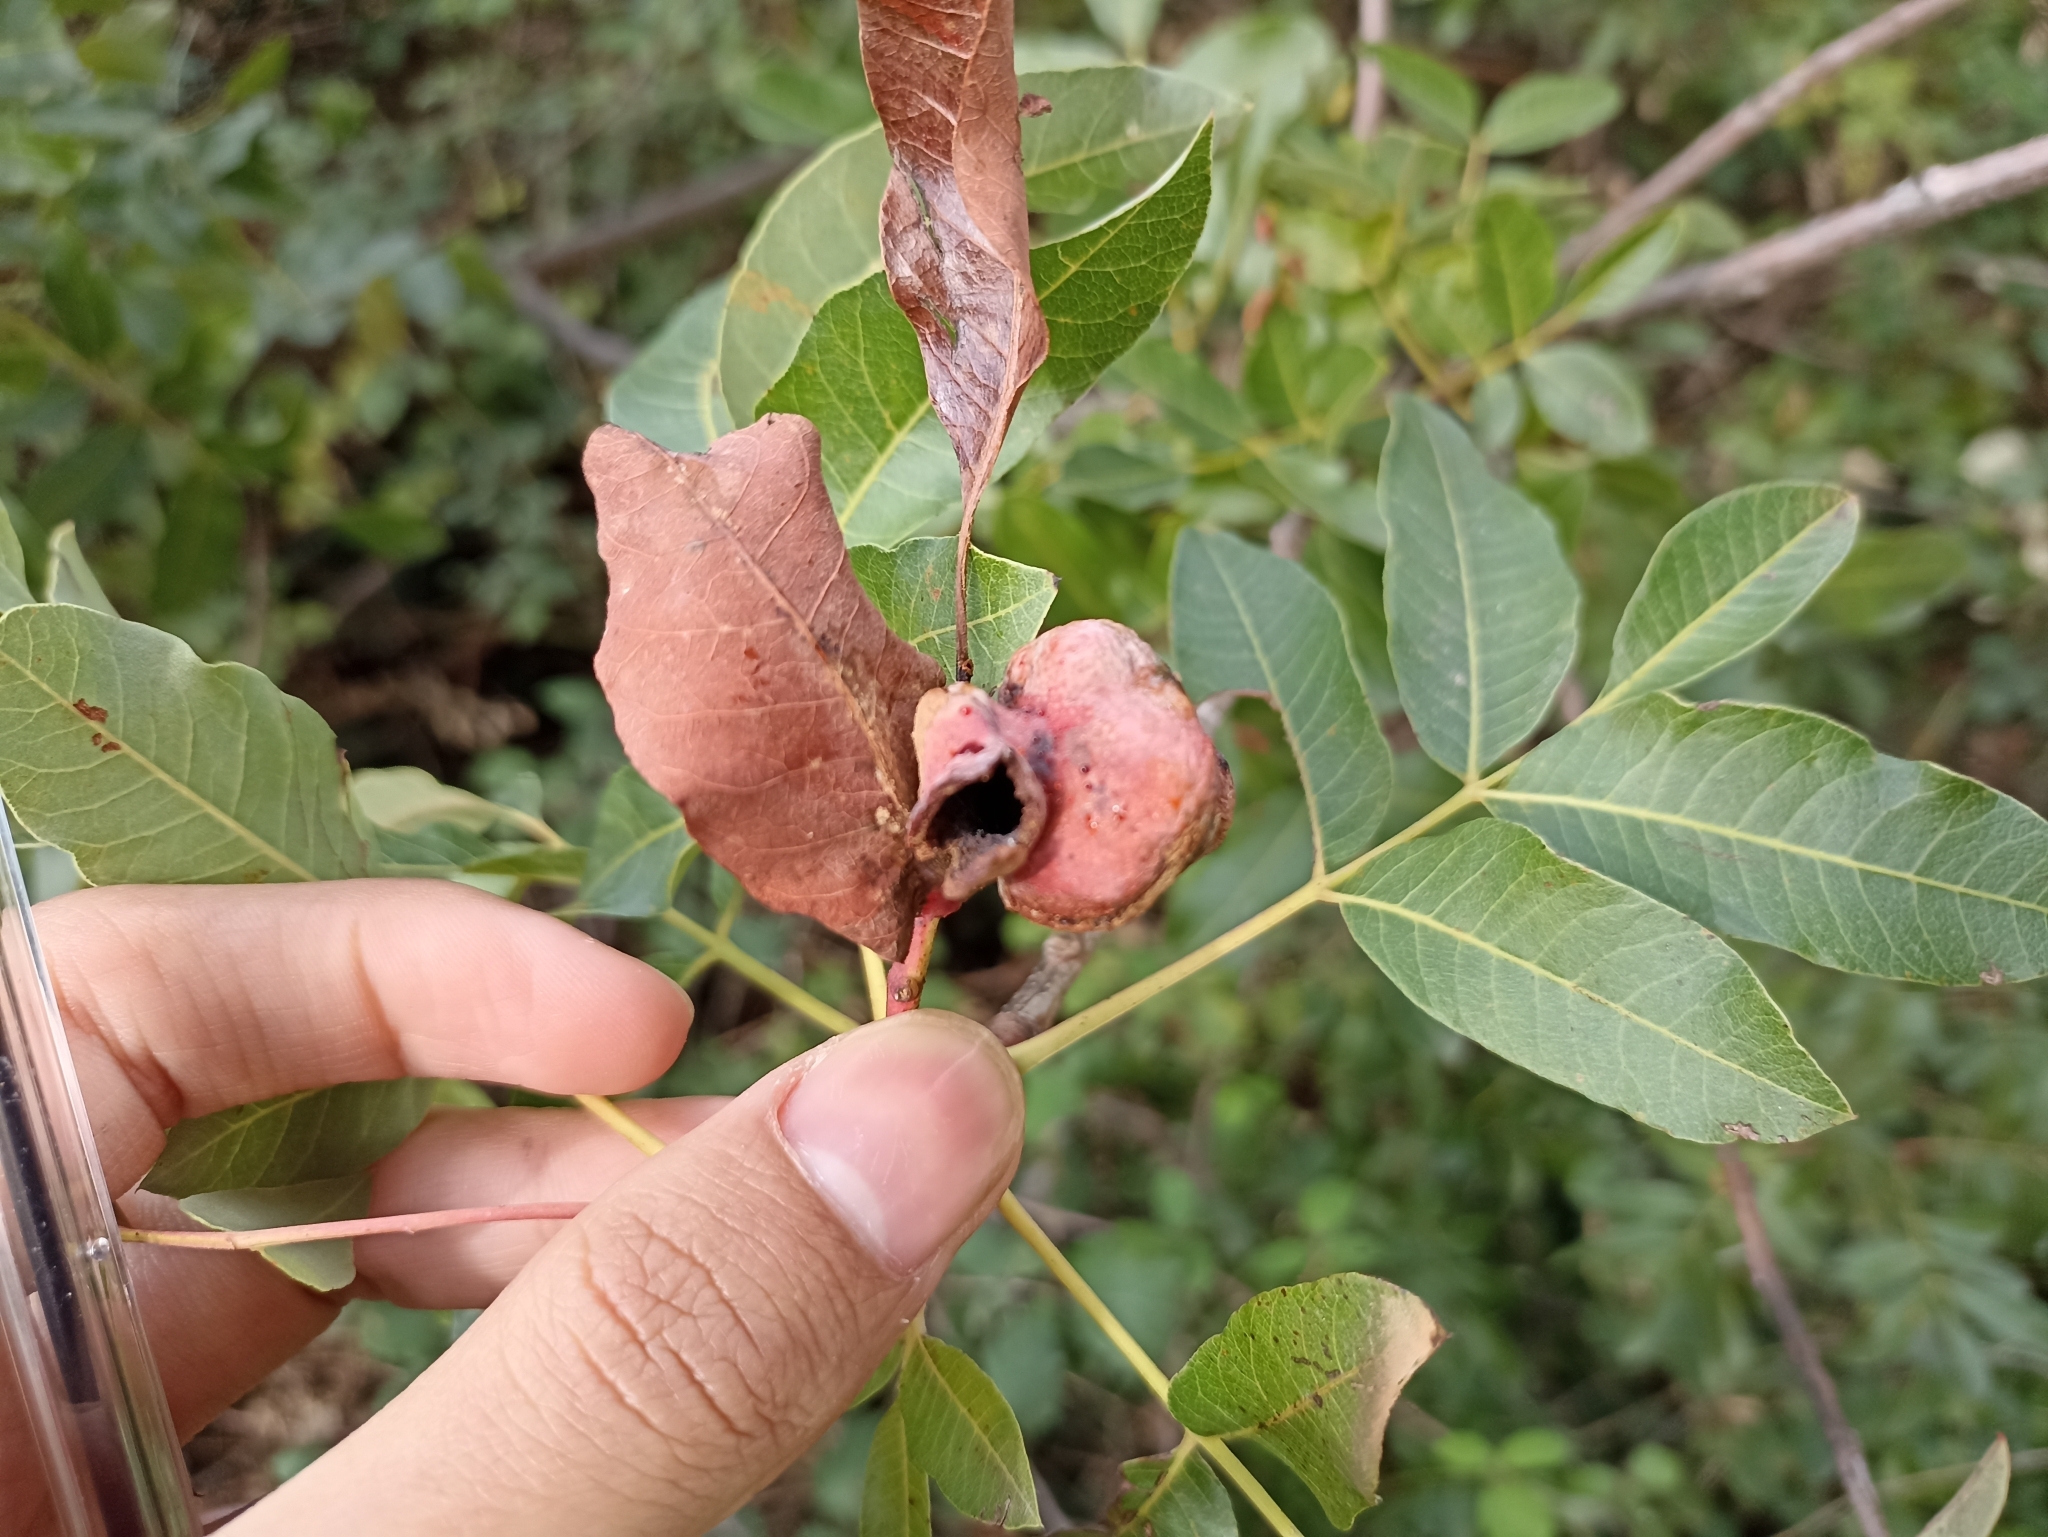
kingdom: Plantae
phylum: Tracheophyta
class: Magnoliopsida
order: Sapindales
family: Anacardiaceae
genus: Pistacia
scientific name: Pistacia terebinthus
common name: Terebinth
